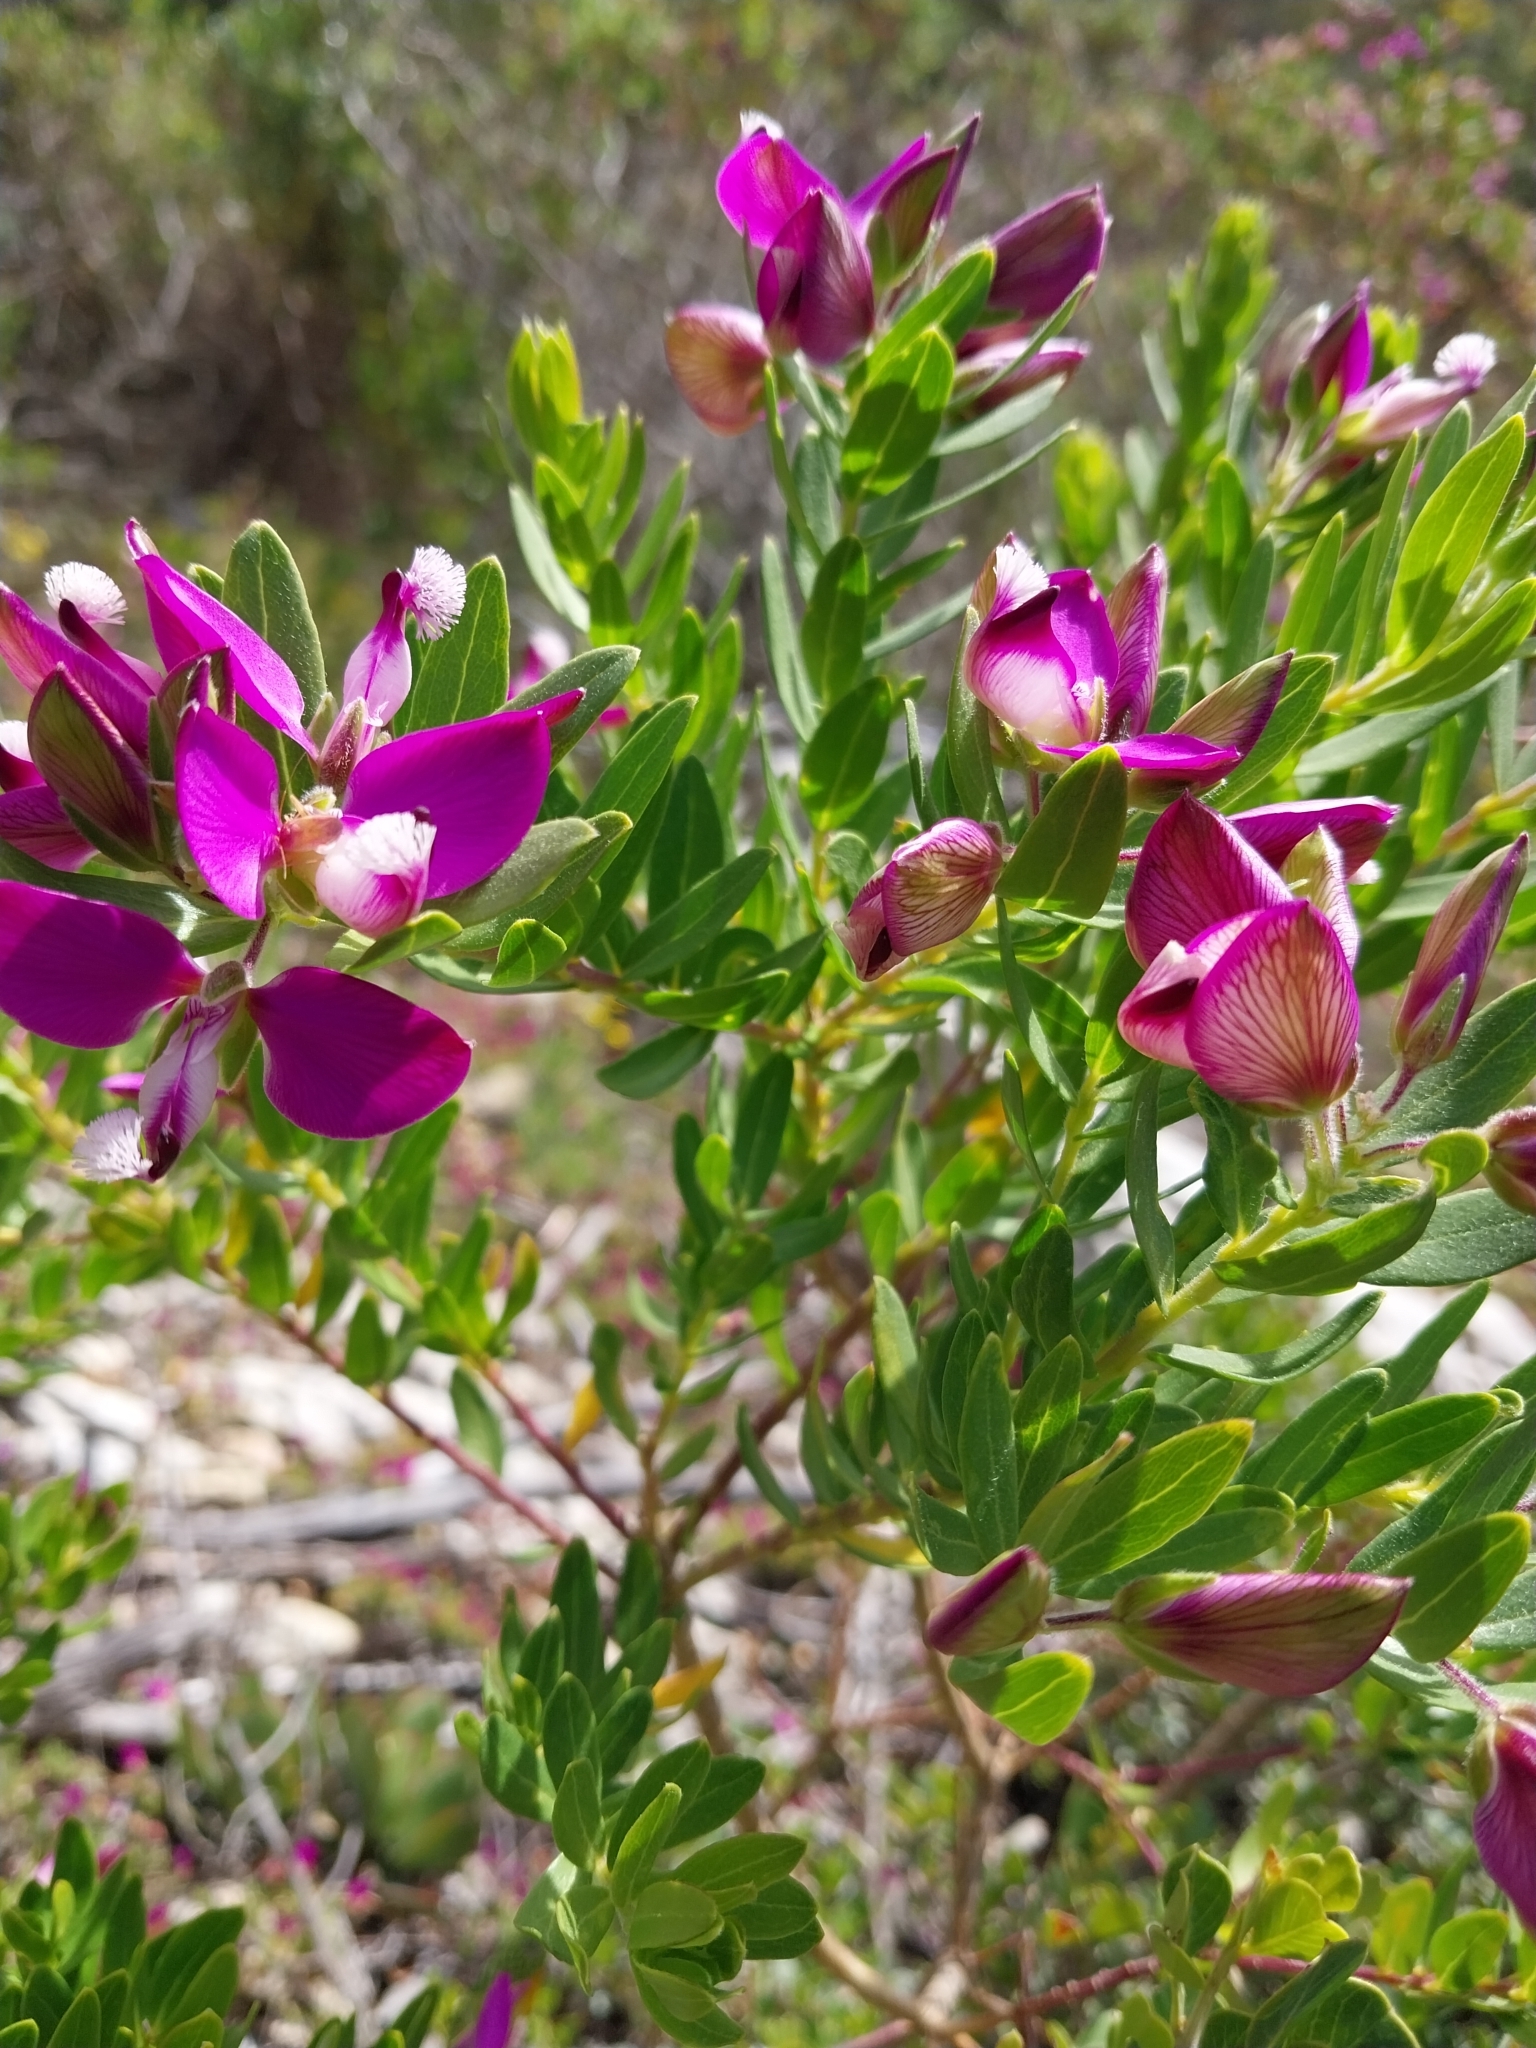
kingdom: Plantae
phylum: Tracheophyta
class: Magnoliopsida
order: Fabales
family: Polygalaceae
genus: Polygala
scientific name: Polygala myrtifolia
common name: Myrtle-leaf milkwort
